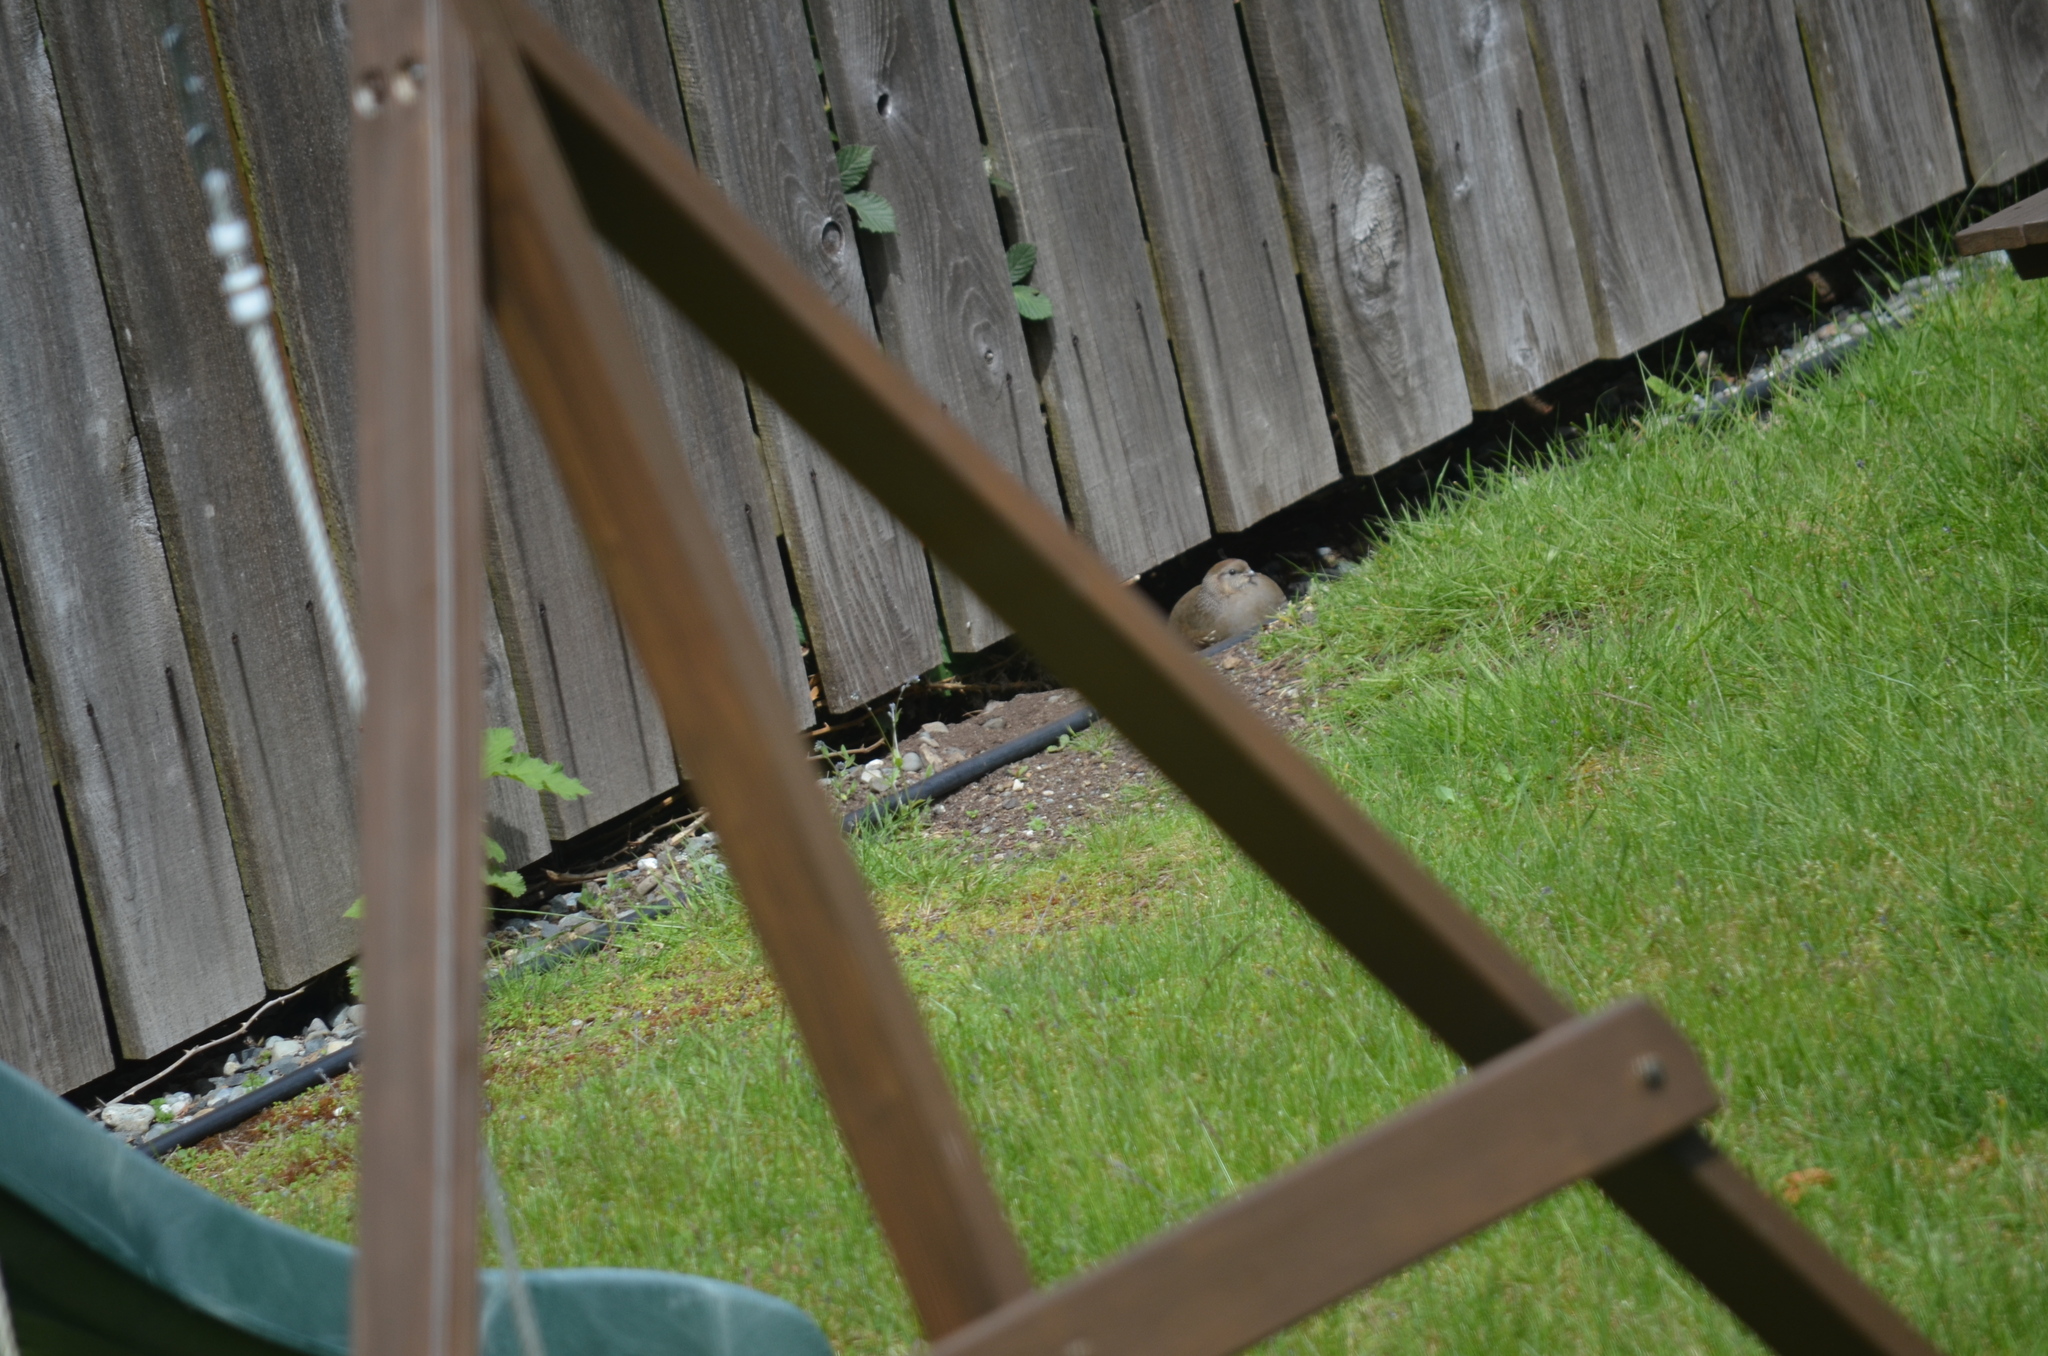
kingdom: Animalia
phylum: Chordata
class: Aves
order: Galliformes
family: Odontophoridae
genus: Callipepla
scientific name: Callipepla californica
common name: California quail
